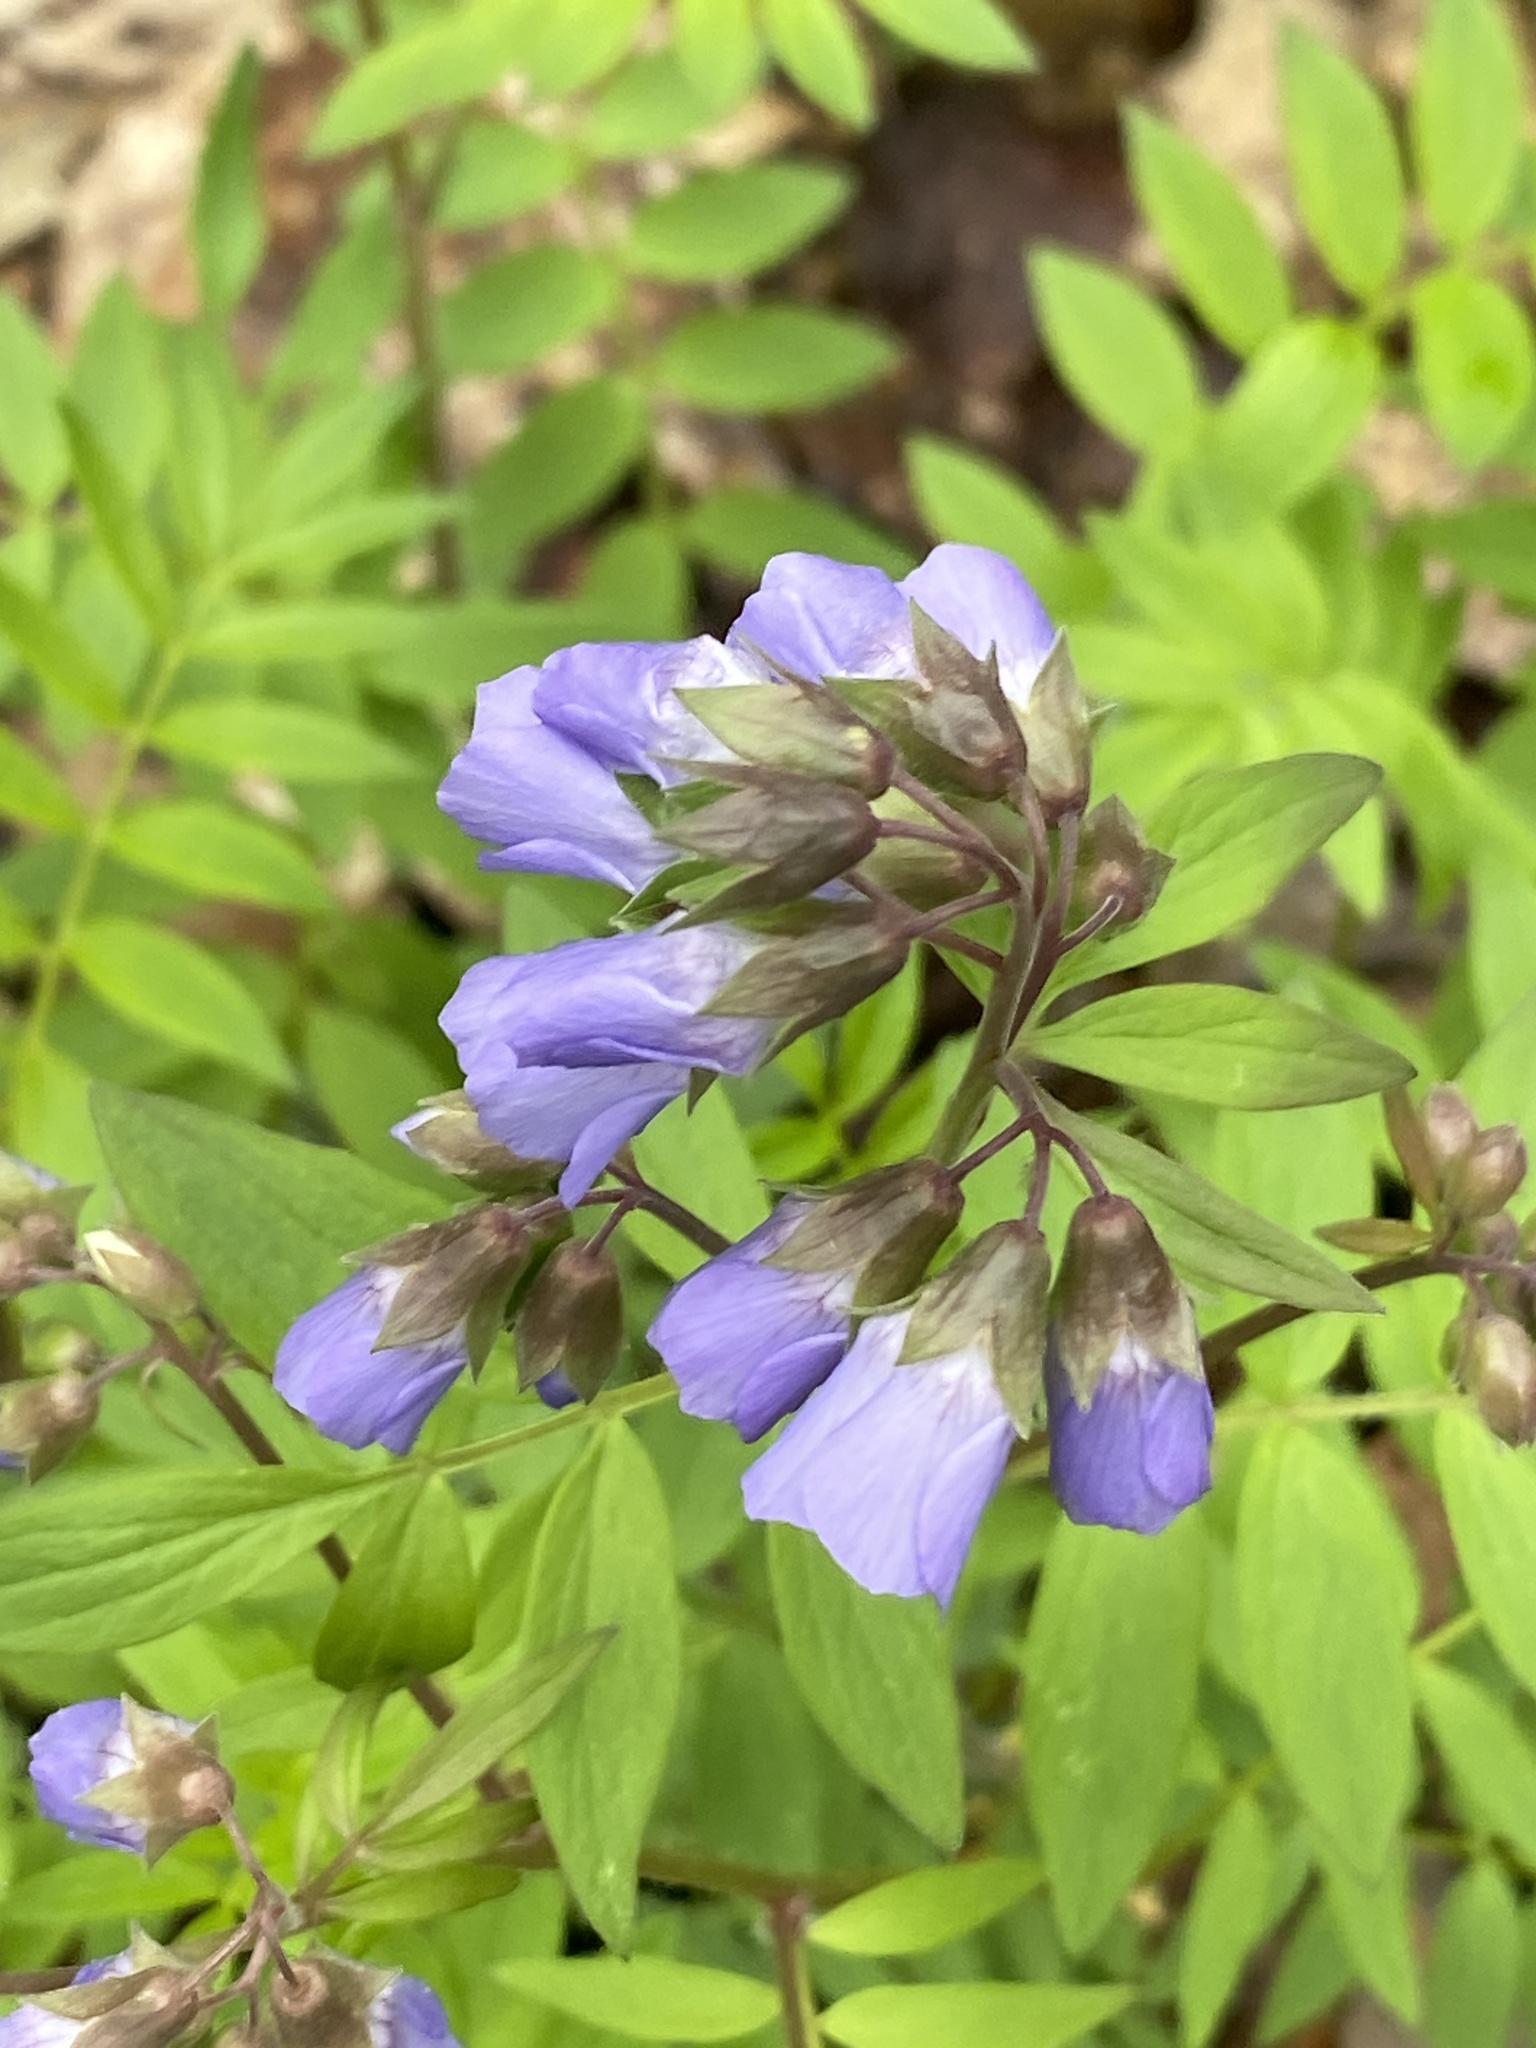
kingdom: Plantae
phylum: Tracheophyta
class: Magnoliopsida
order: Ericales
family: Polemoniaceae
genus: Polemonium
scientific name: Polemonium reptans
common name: Creeping jacob's-ladder
